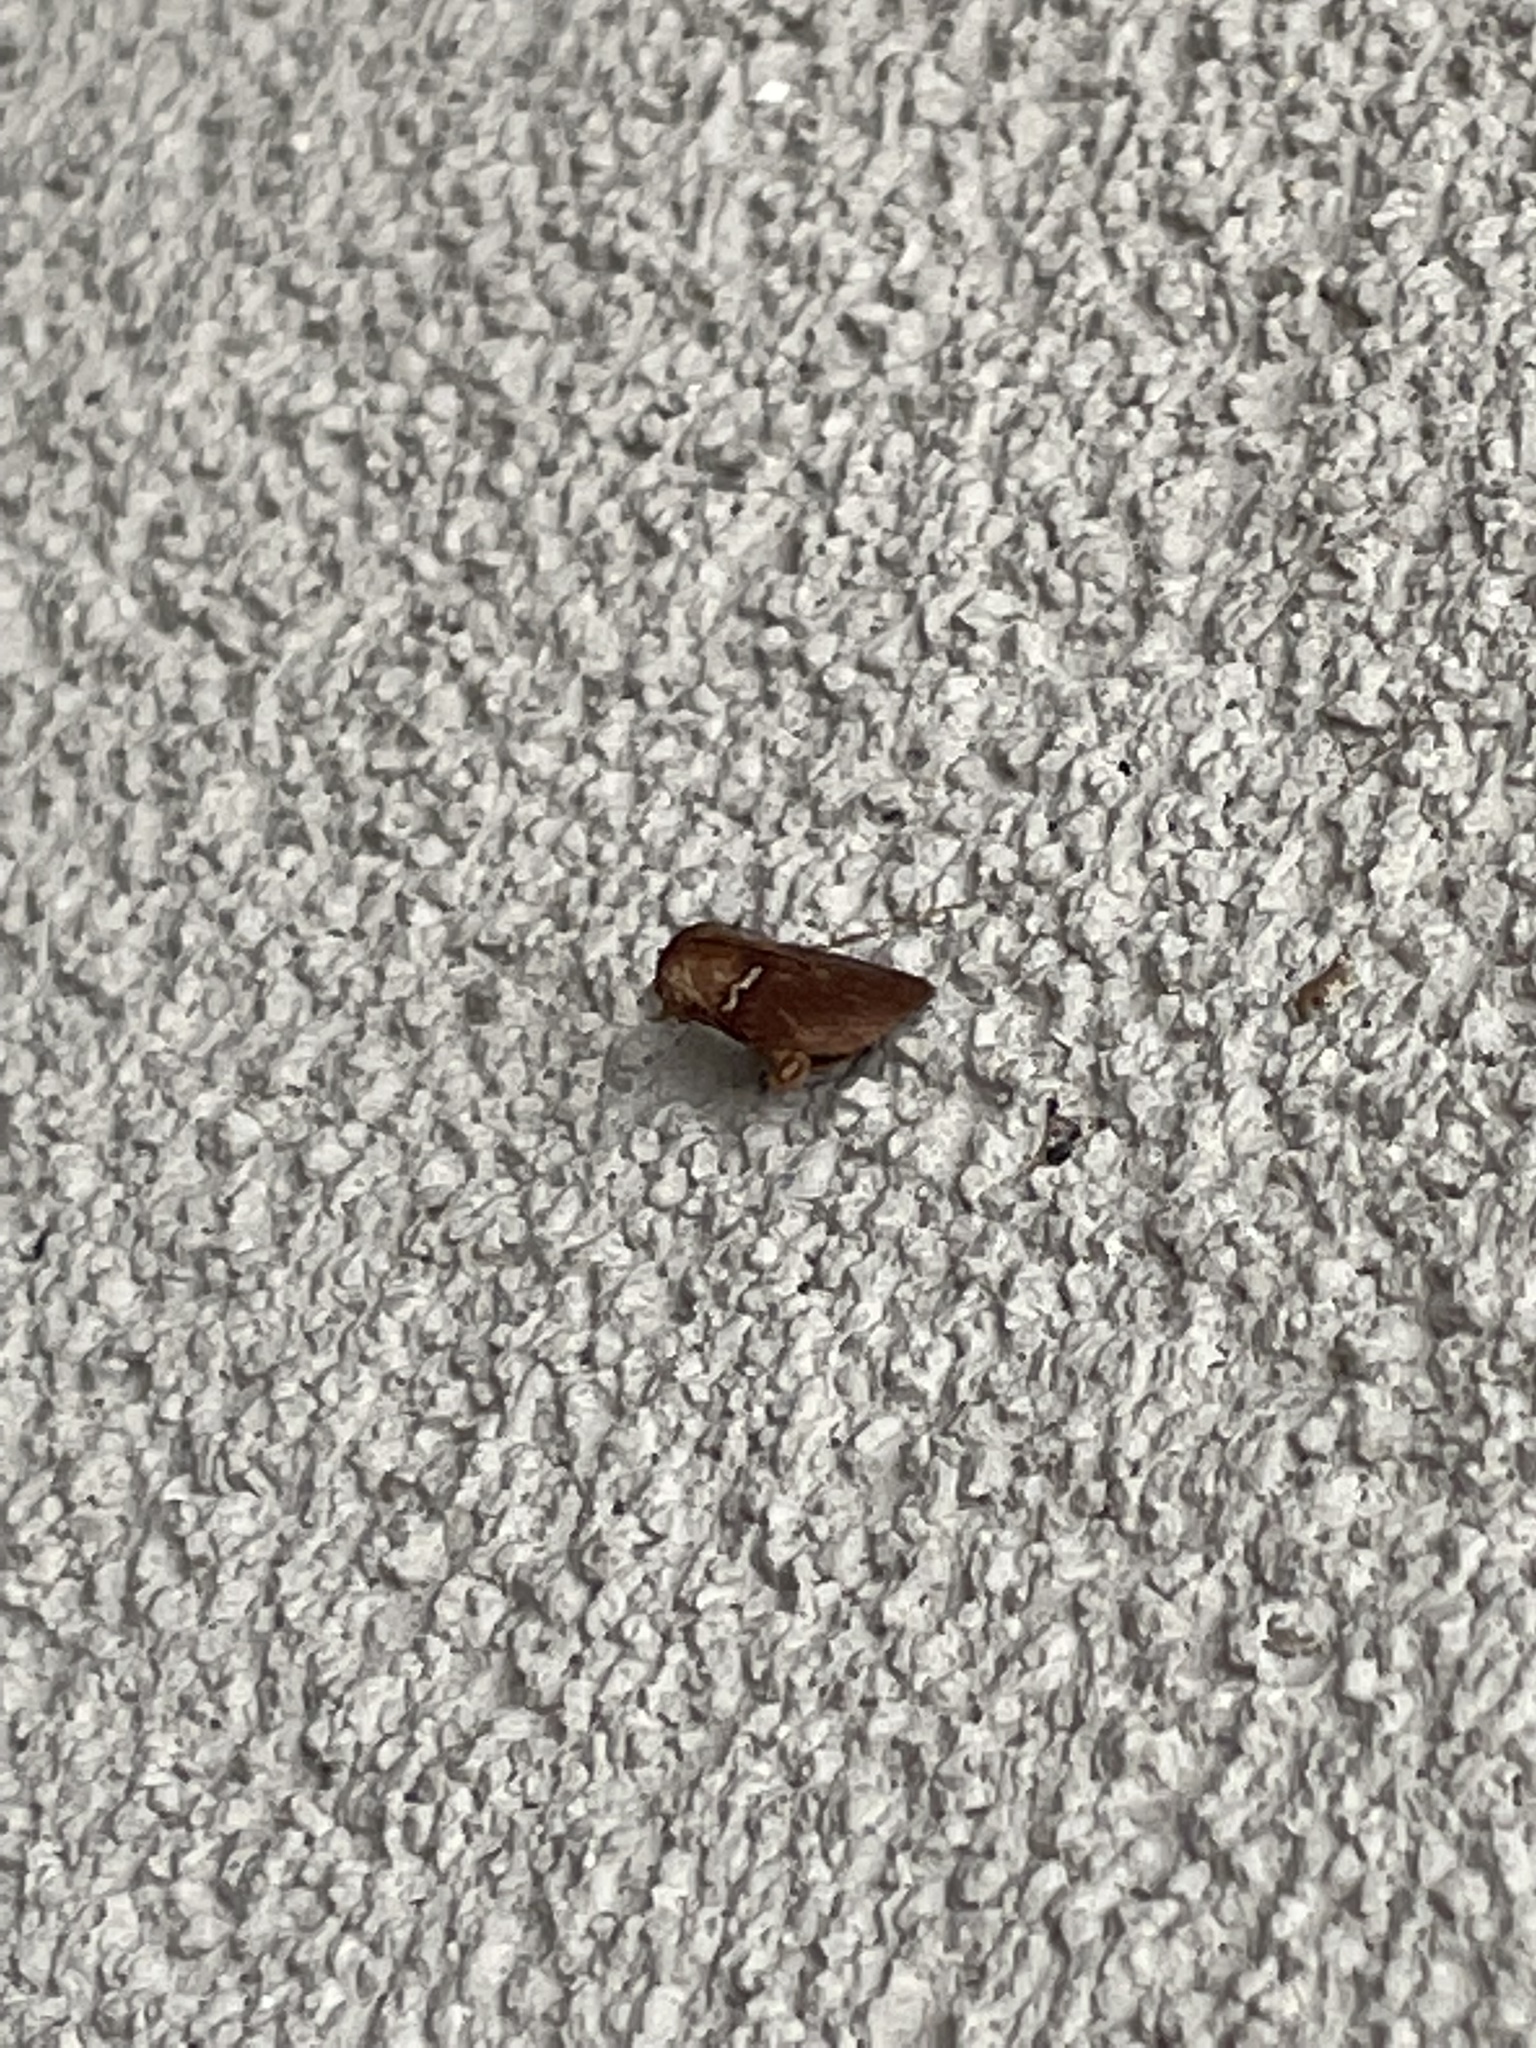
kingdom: Animalia
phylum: Arthropoda
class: Insecta
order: Lepidoptera
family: Limacodidae
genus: Monoleuca
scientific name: Monoleuca semifascia
